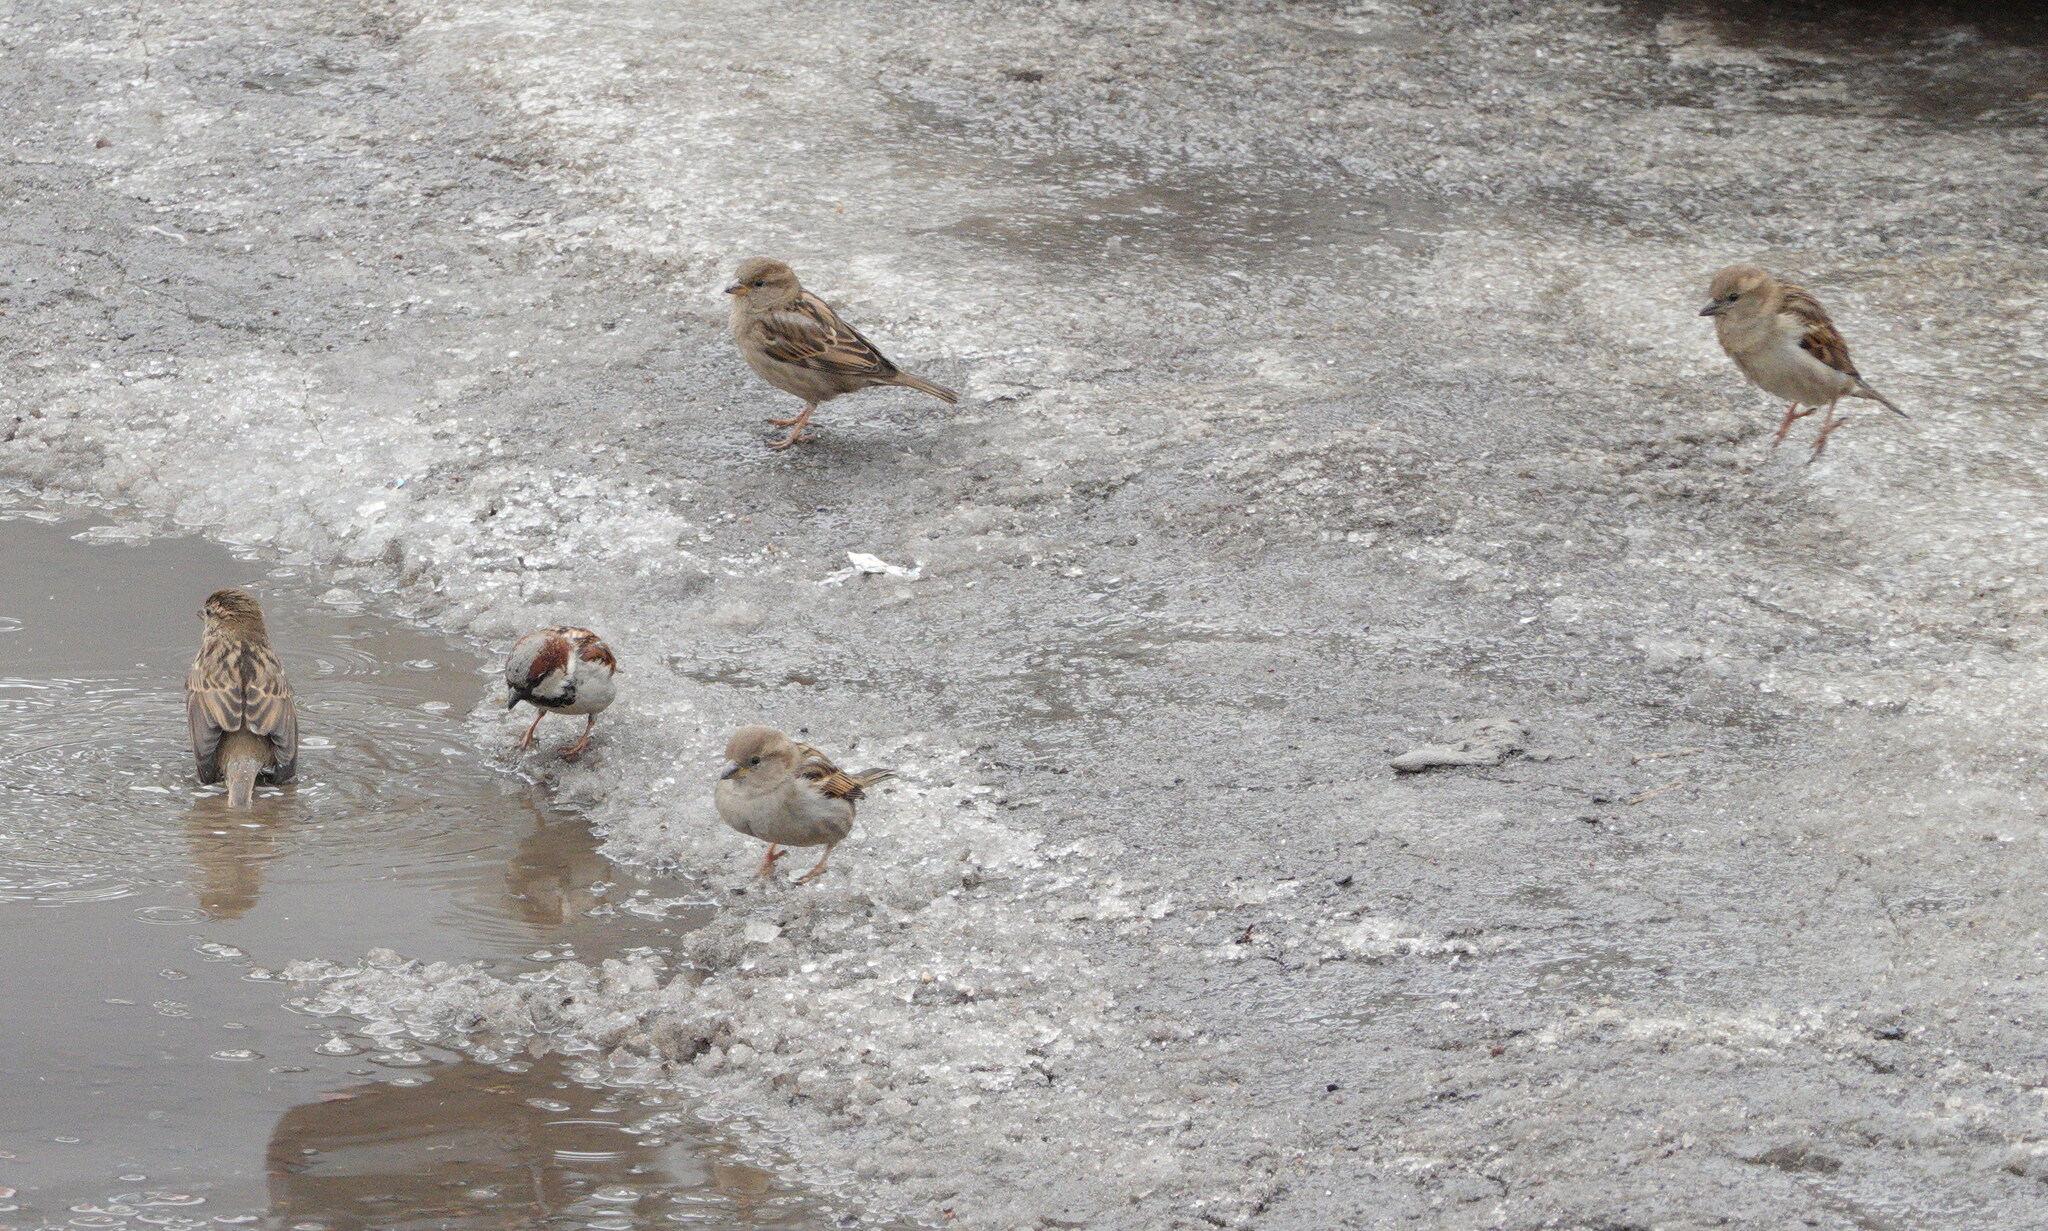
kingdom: Animalia
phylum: Chordata
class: Aves
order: Passeriformes
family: Passeridae
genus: Passer
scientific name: Passer domesticus
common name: House sparrow
